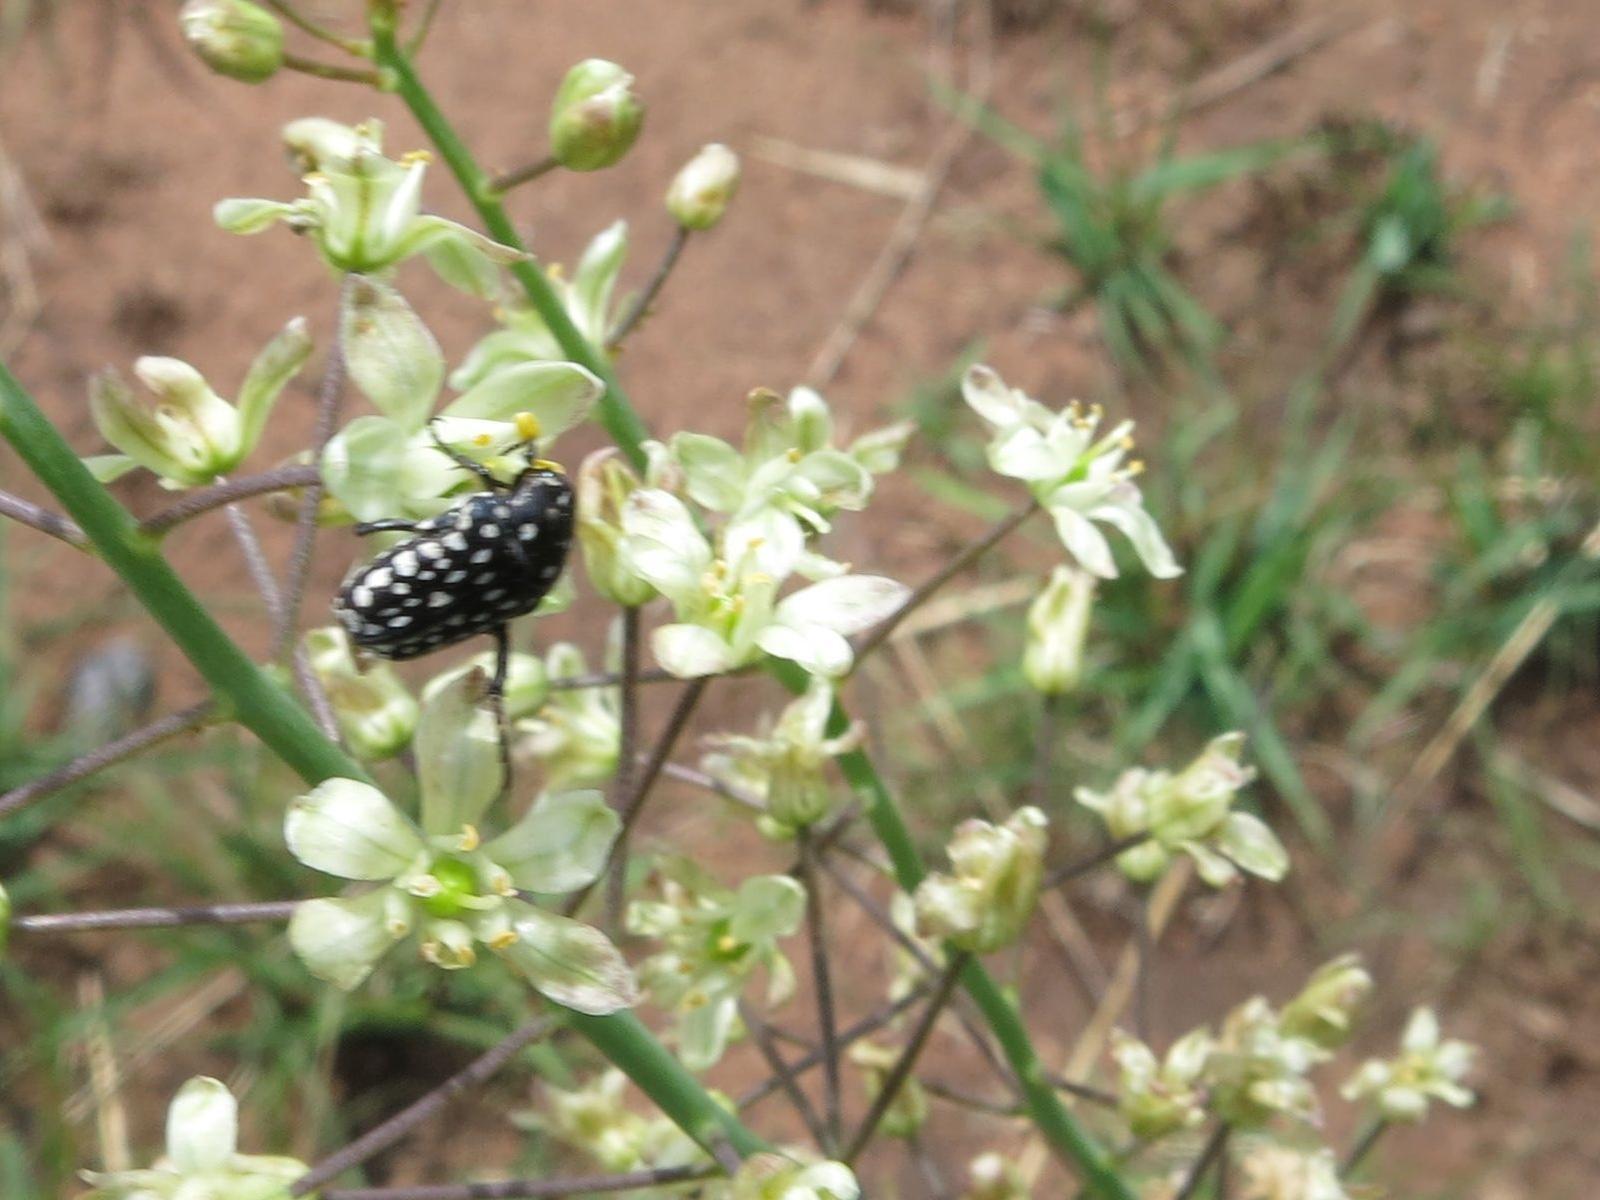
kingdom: Plantae
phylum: Tracheophyta
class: Liliopsida
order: Asparagales
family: Asparagaceae
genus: Eriospermum
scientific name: Eriospermum cooperi
